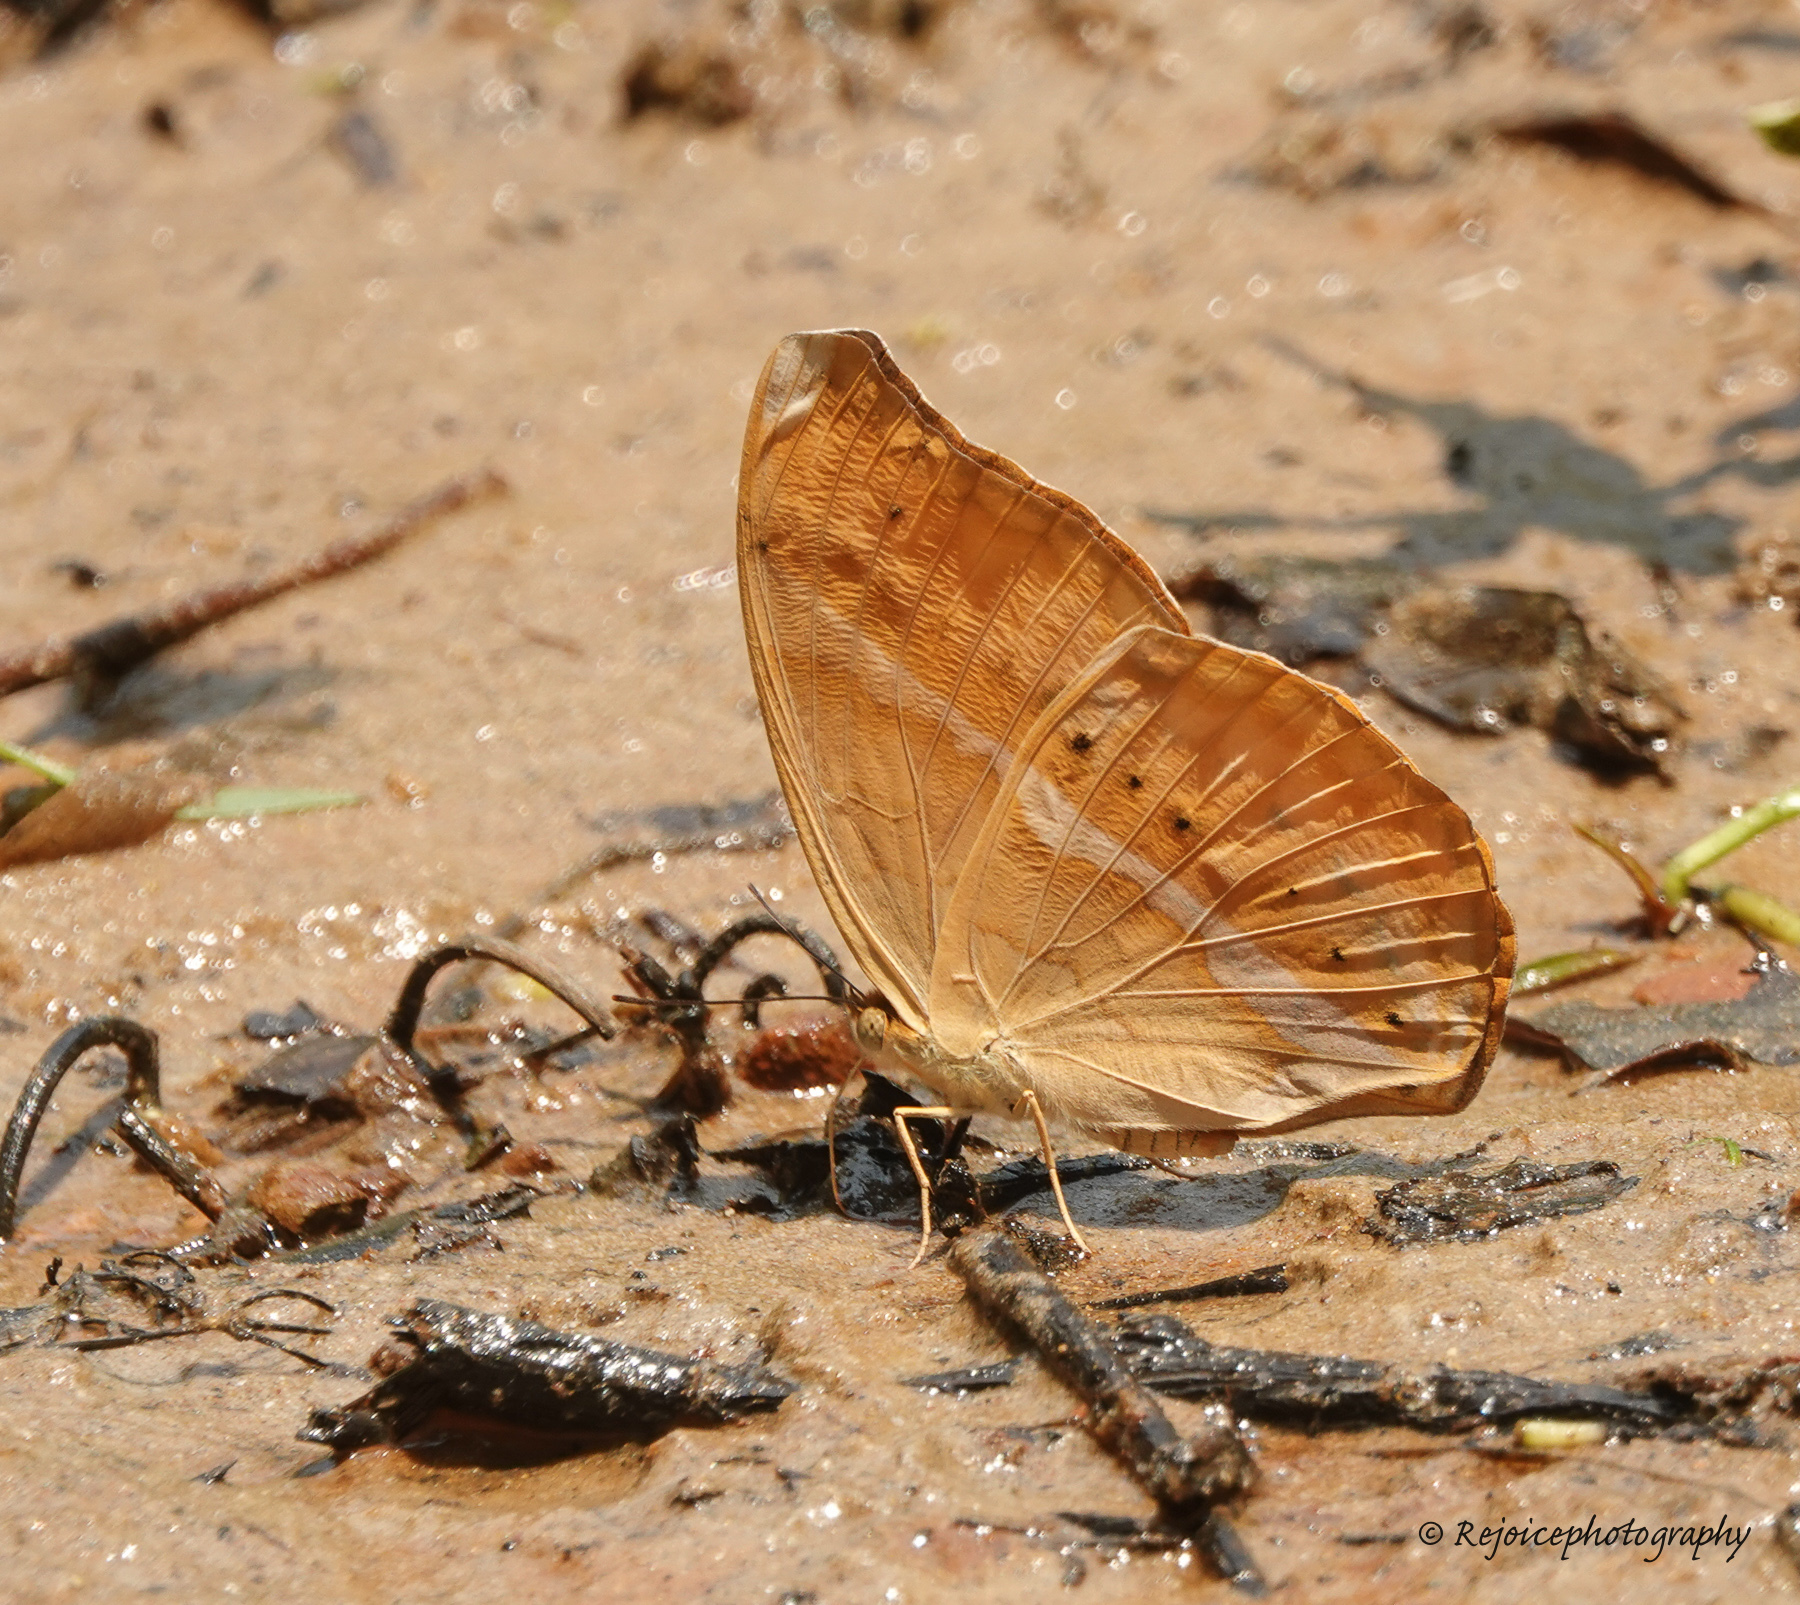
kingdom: Animalia
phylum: Arthropoda
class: Insecta
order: Lepidoptera
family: Nymphalidae
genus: Cirrochroa
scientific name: Cirrochroa aoris
